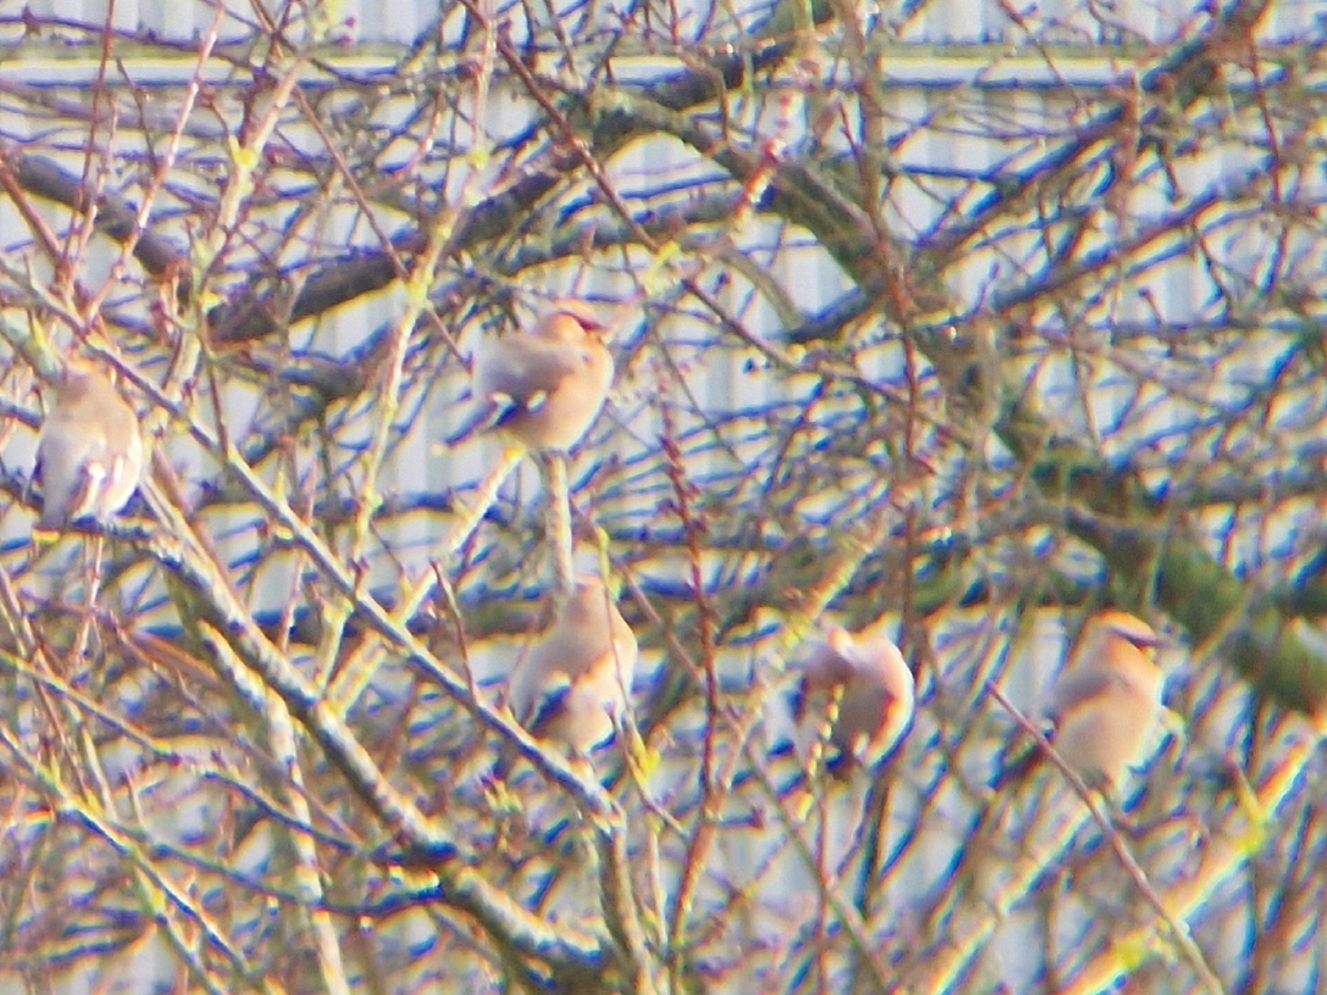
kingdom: Animalia
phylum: Chordata
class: Aves
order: Passeriformes
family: Bombycillidae
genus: Bombycilla
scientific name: Bombycilla garrulus
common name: Bohemian waxwing
